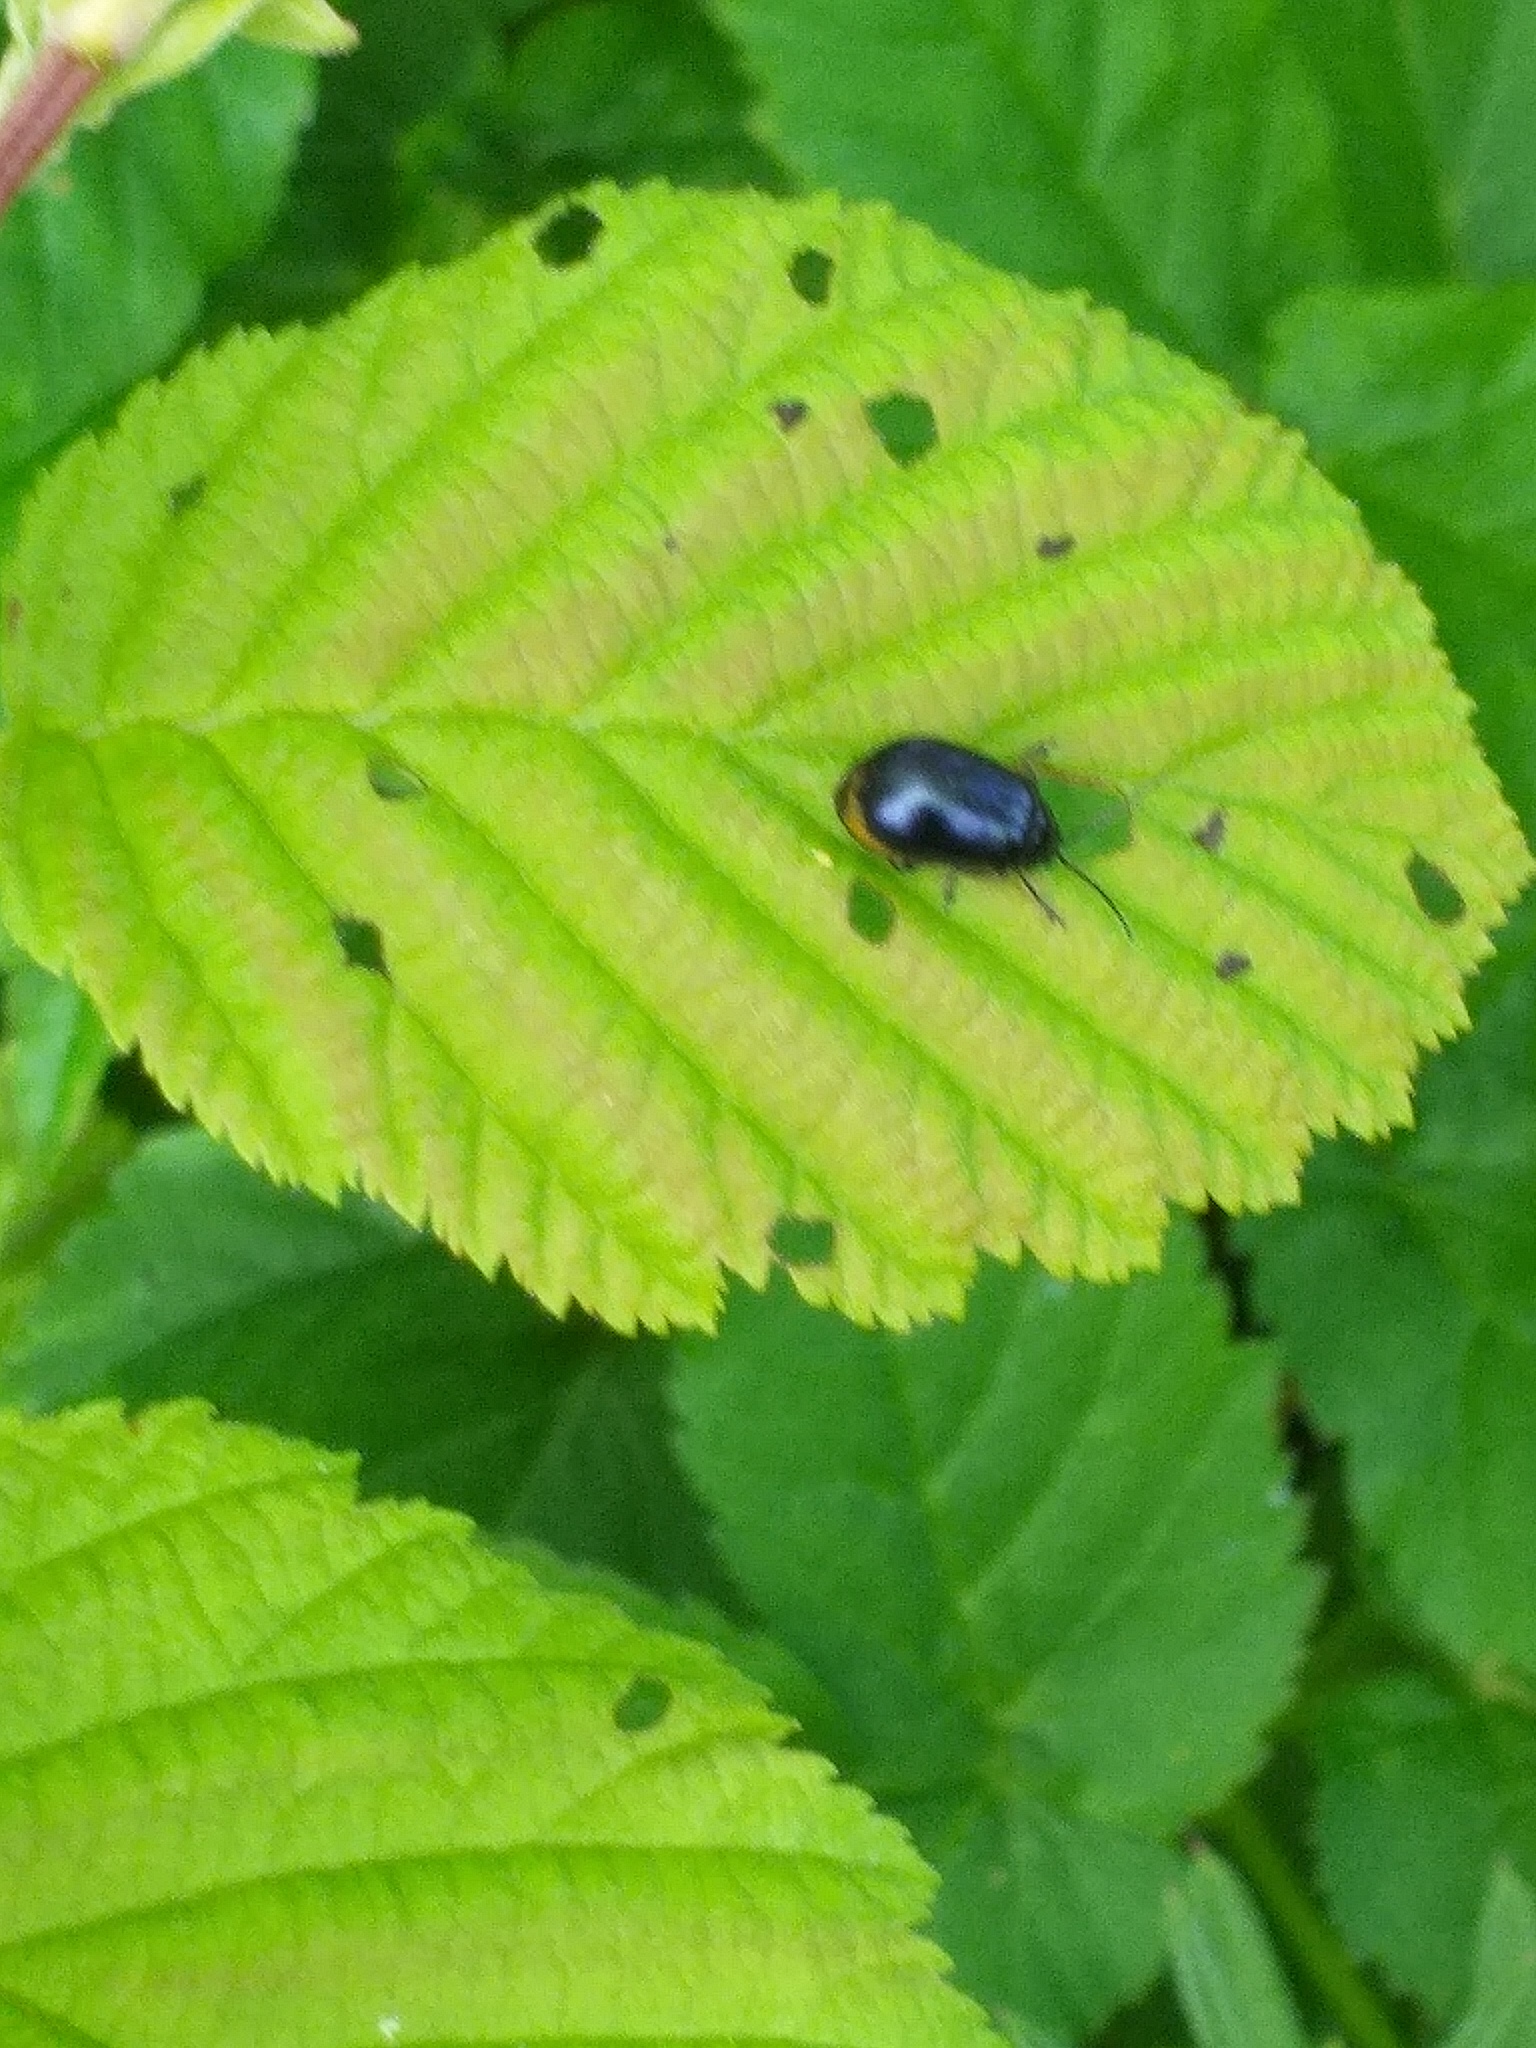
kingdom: Animalia
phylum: Arthropoda
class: Insecta
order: Coleoptera
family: Chrysomelidae
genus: Agelastica
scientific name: Agelastica alni
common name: Alder leaf beetle
